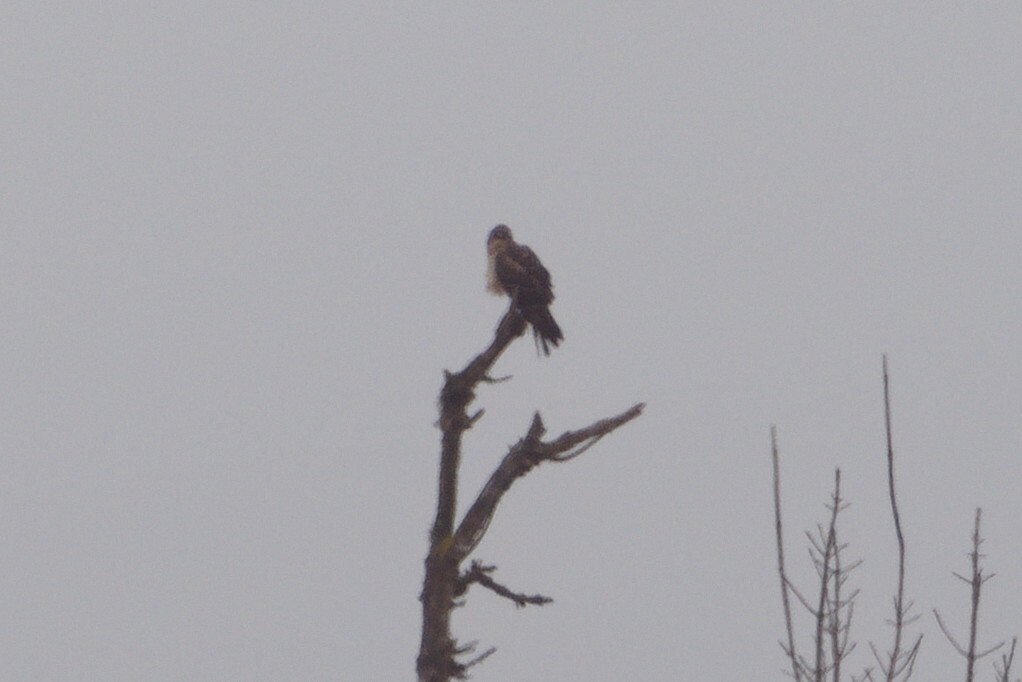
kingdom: Animalia
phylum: Chordata
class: Aves
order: Accipitriformes
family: Accipitridae
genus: Circus
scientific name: Circus cyaneus
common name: Hen harrier
